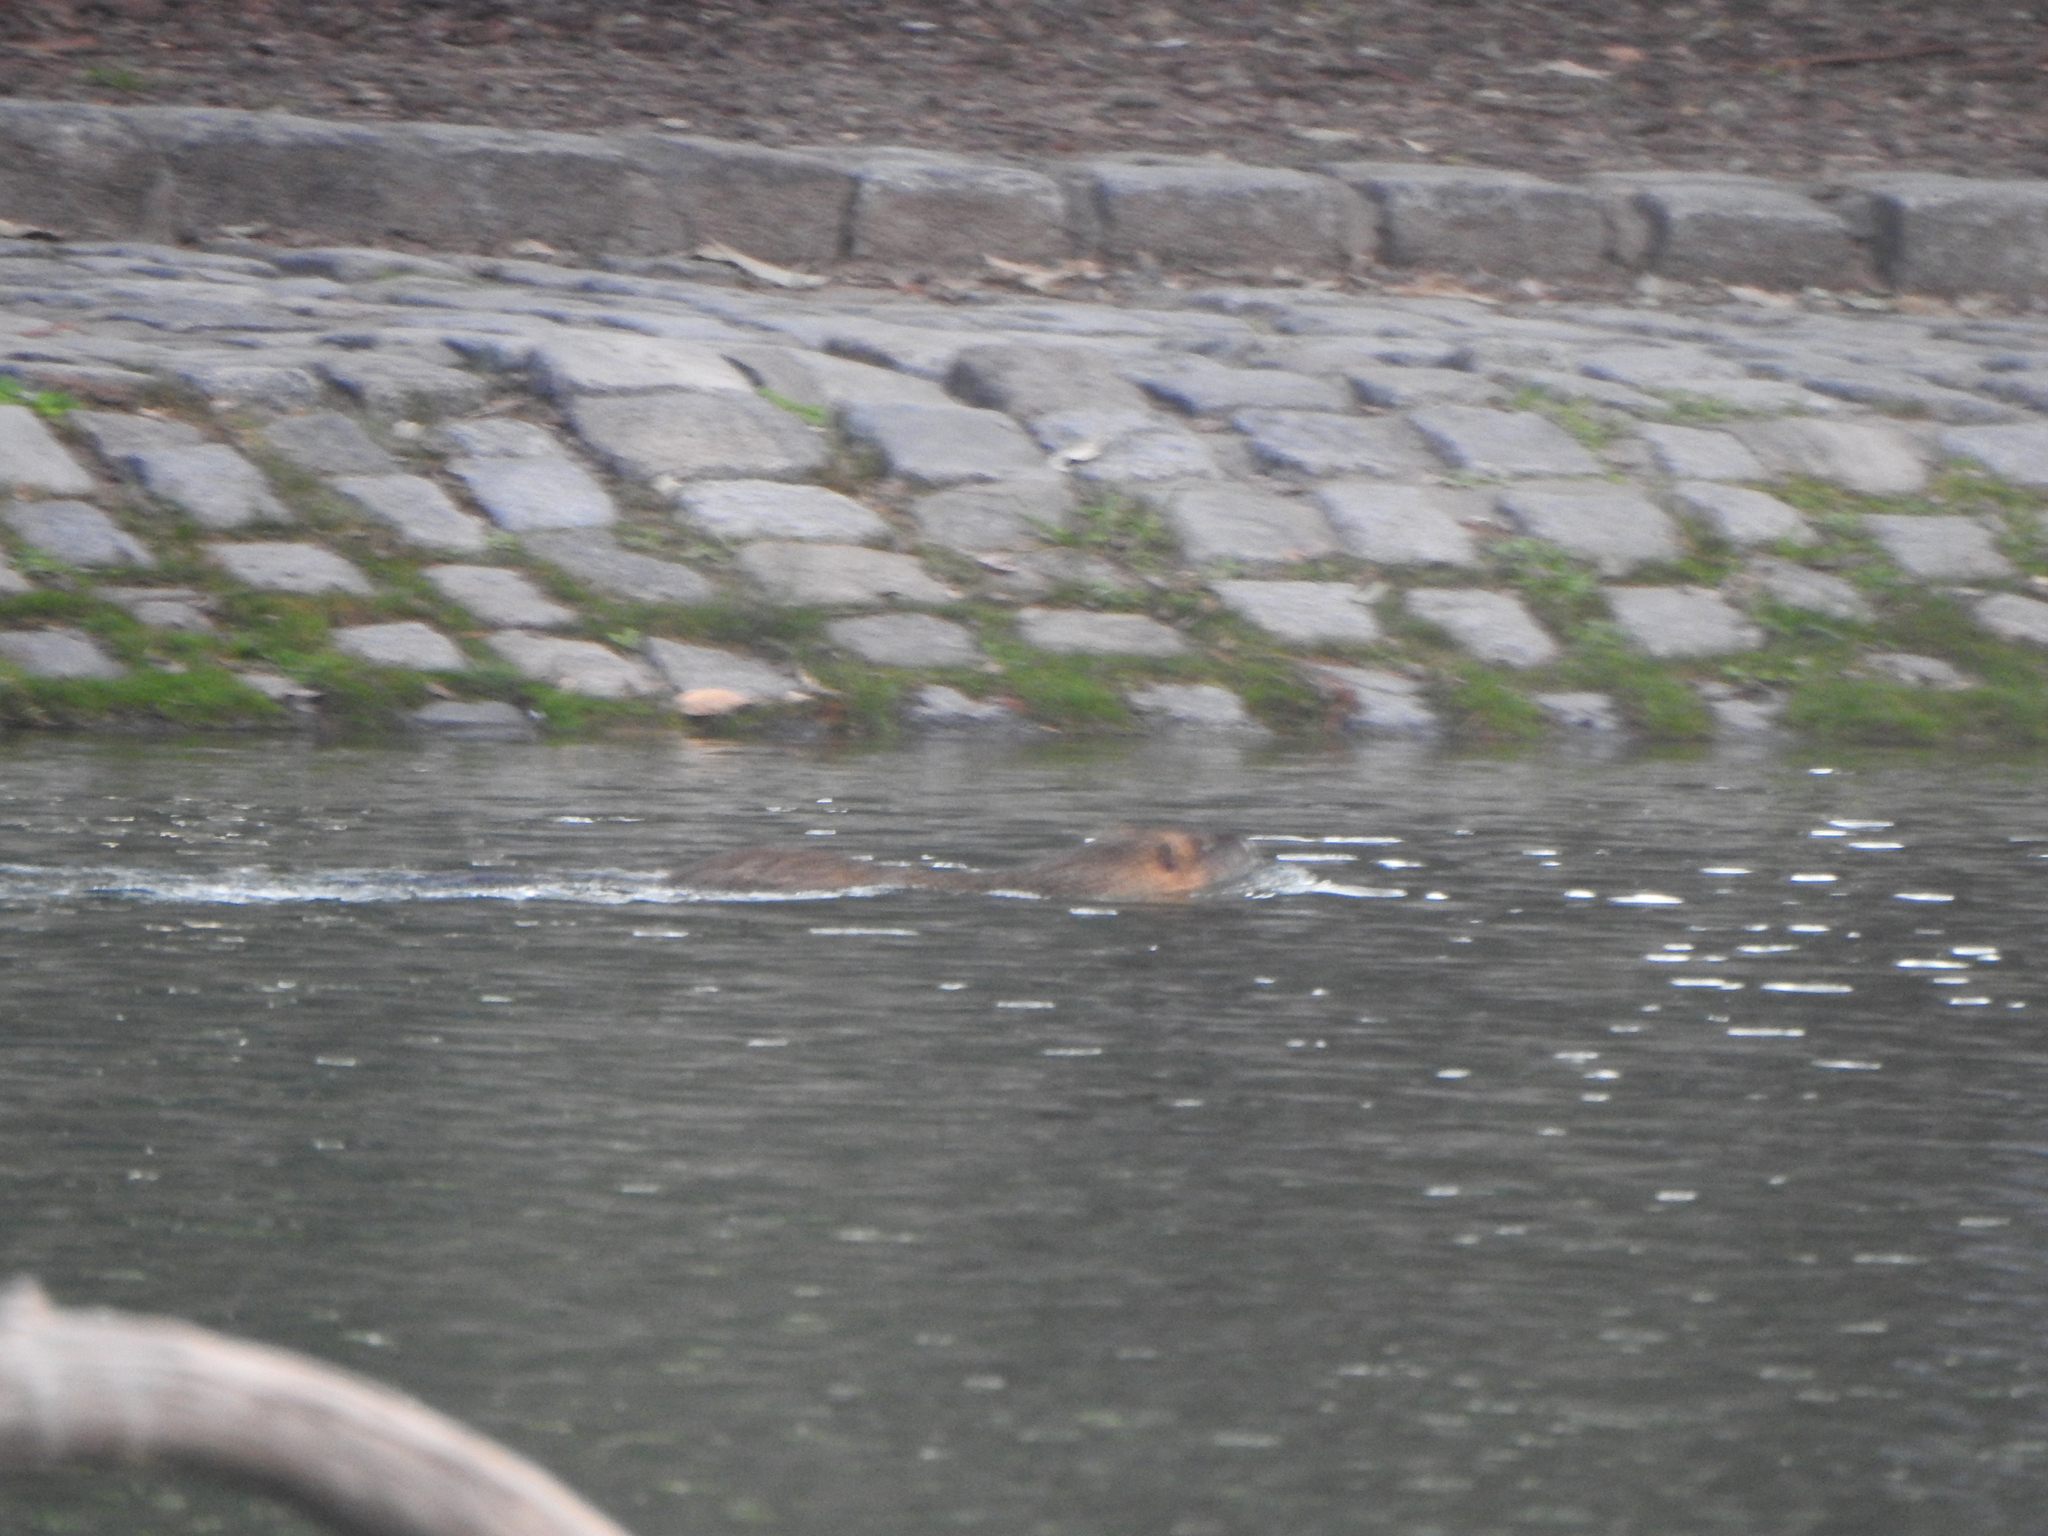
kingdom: Animalia
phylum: Chordata
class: Mammalia
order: Rodentia
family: Myocastoridae
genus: Myocastor
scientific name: Myocastor coypus
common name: Coypu
